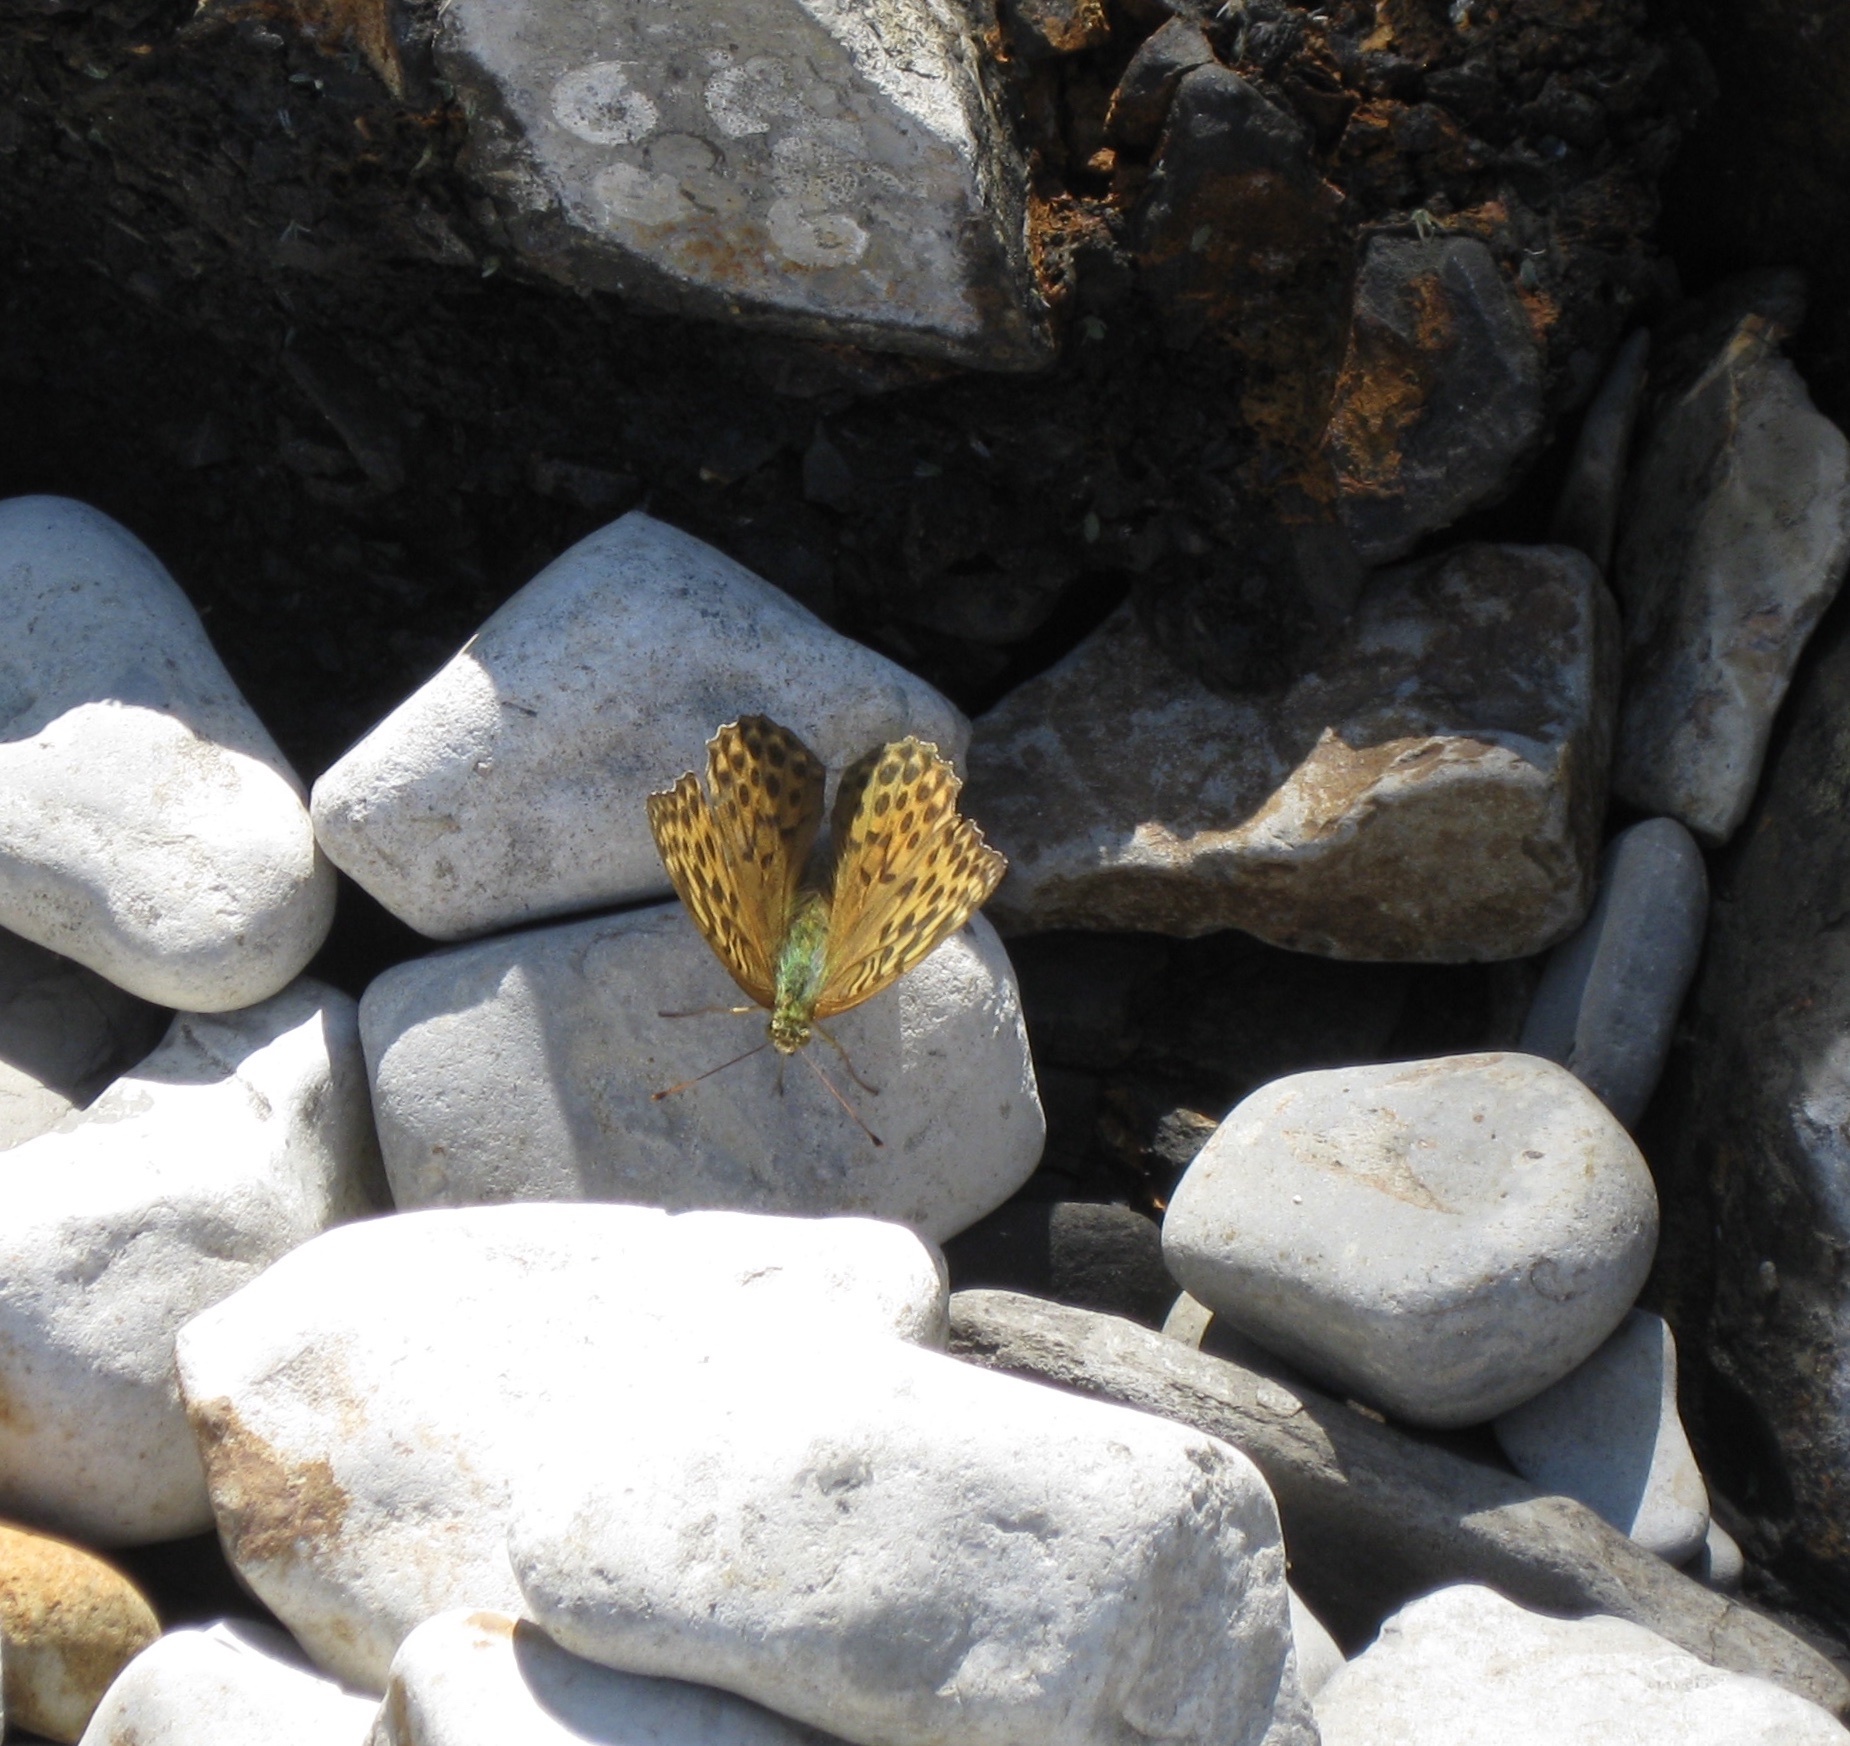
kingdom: Animalia
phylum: Arthropoda
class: Insecta
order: Lepidoptera
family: Nymphalidae
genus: Argynnis
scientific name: Argynnis paphia
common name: Silver-washed fritillary
